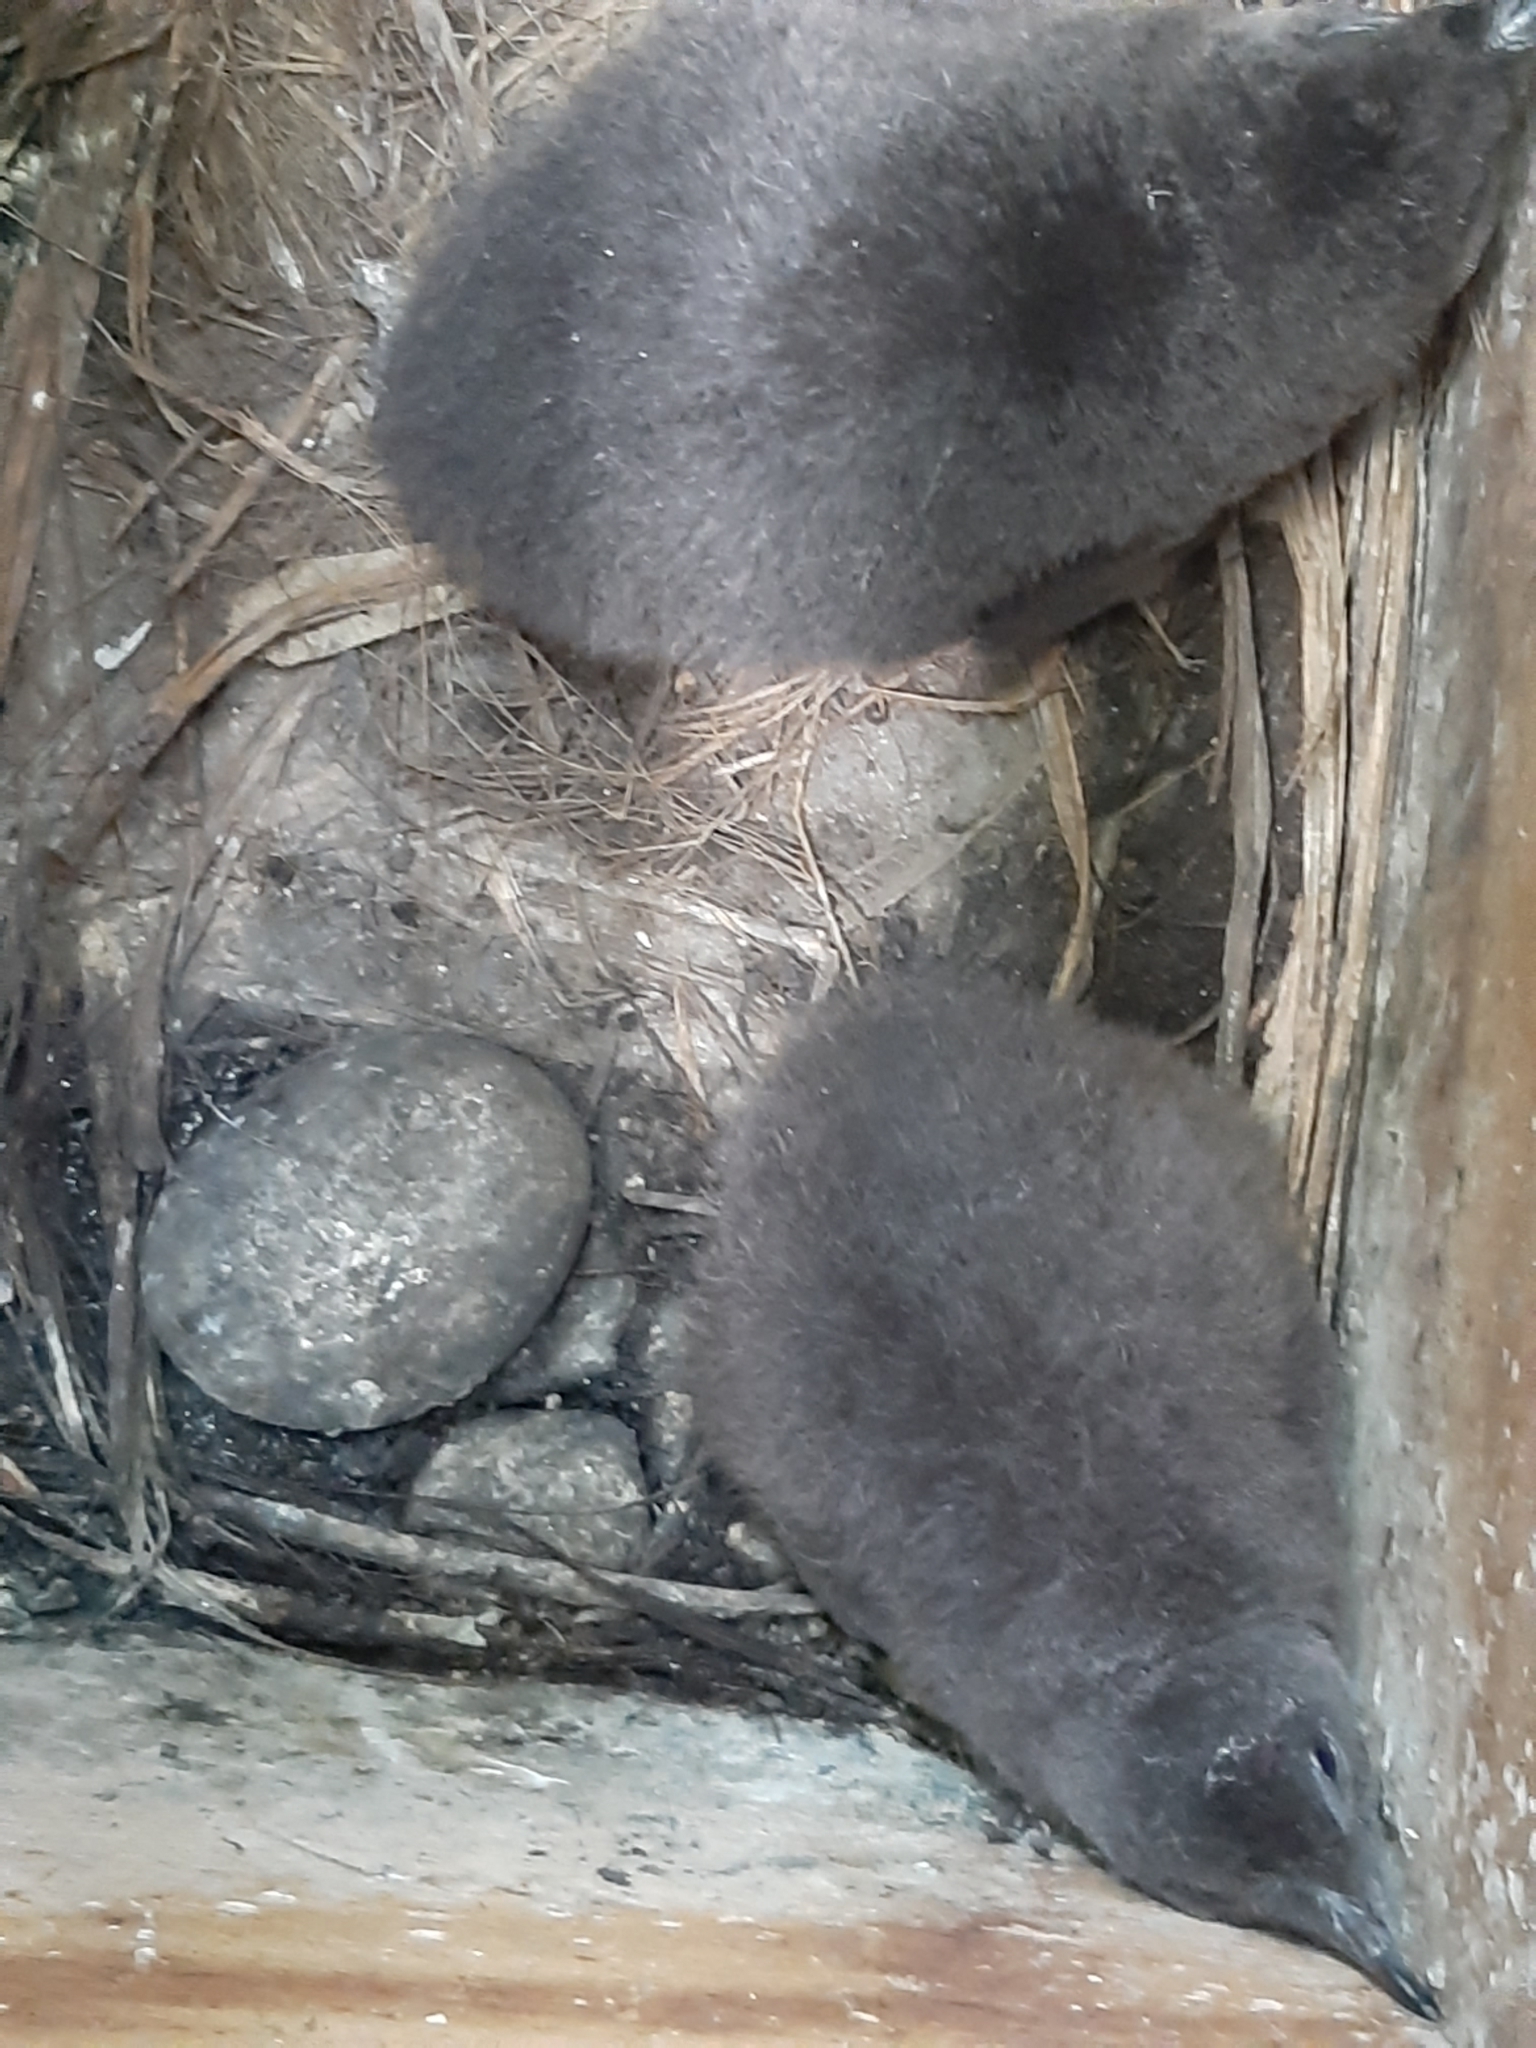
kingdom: Animalia
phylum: Chordata
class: Aves
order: Sphenisciformes
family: Spheniscidae
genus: Eudyptula
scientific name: Eudyptula minor
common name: Little penguin
